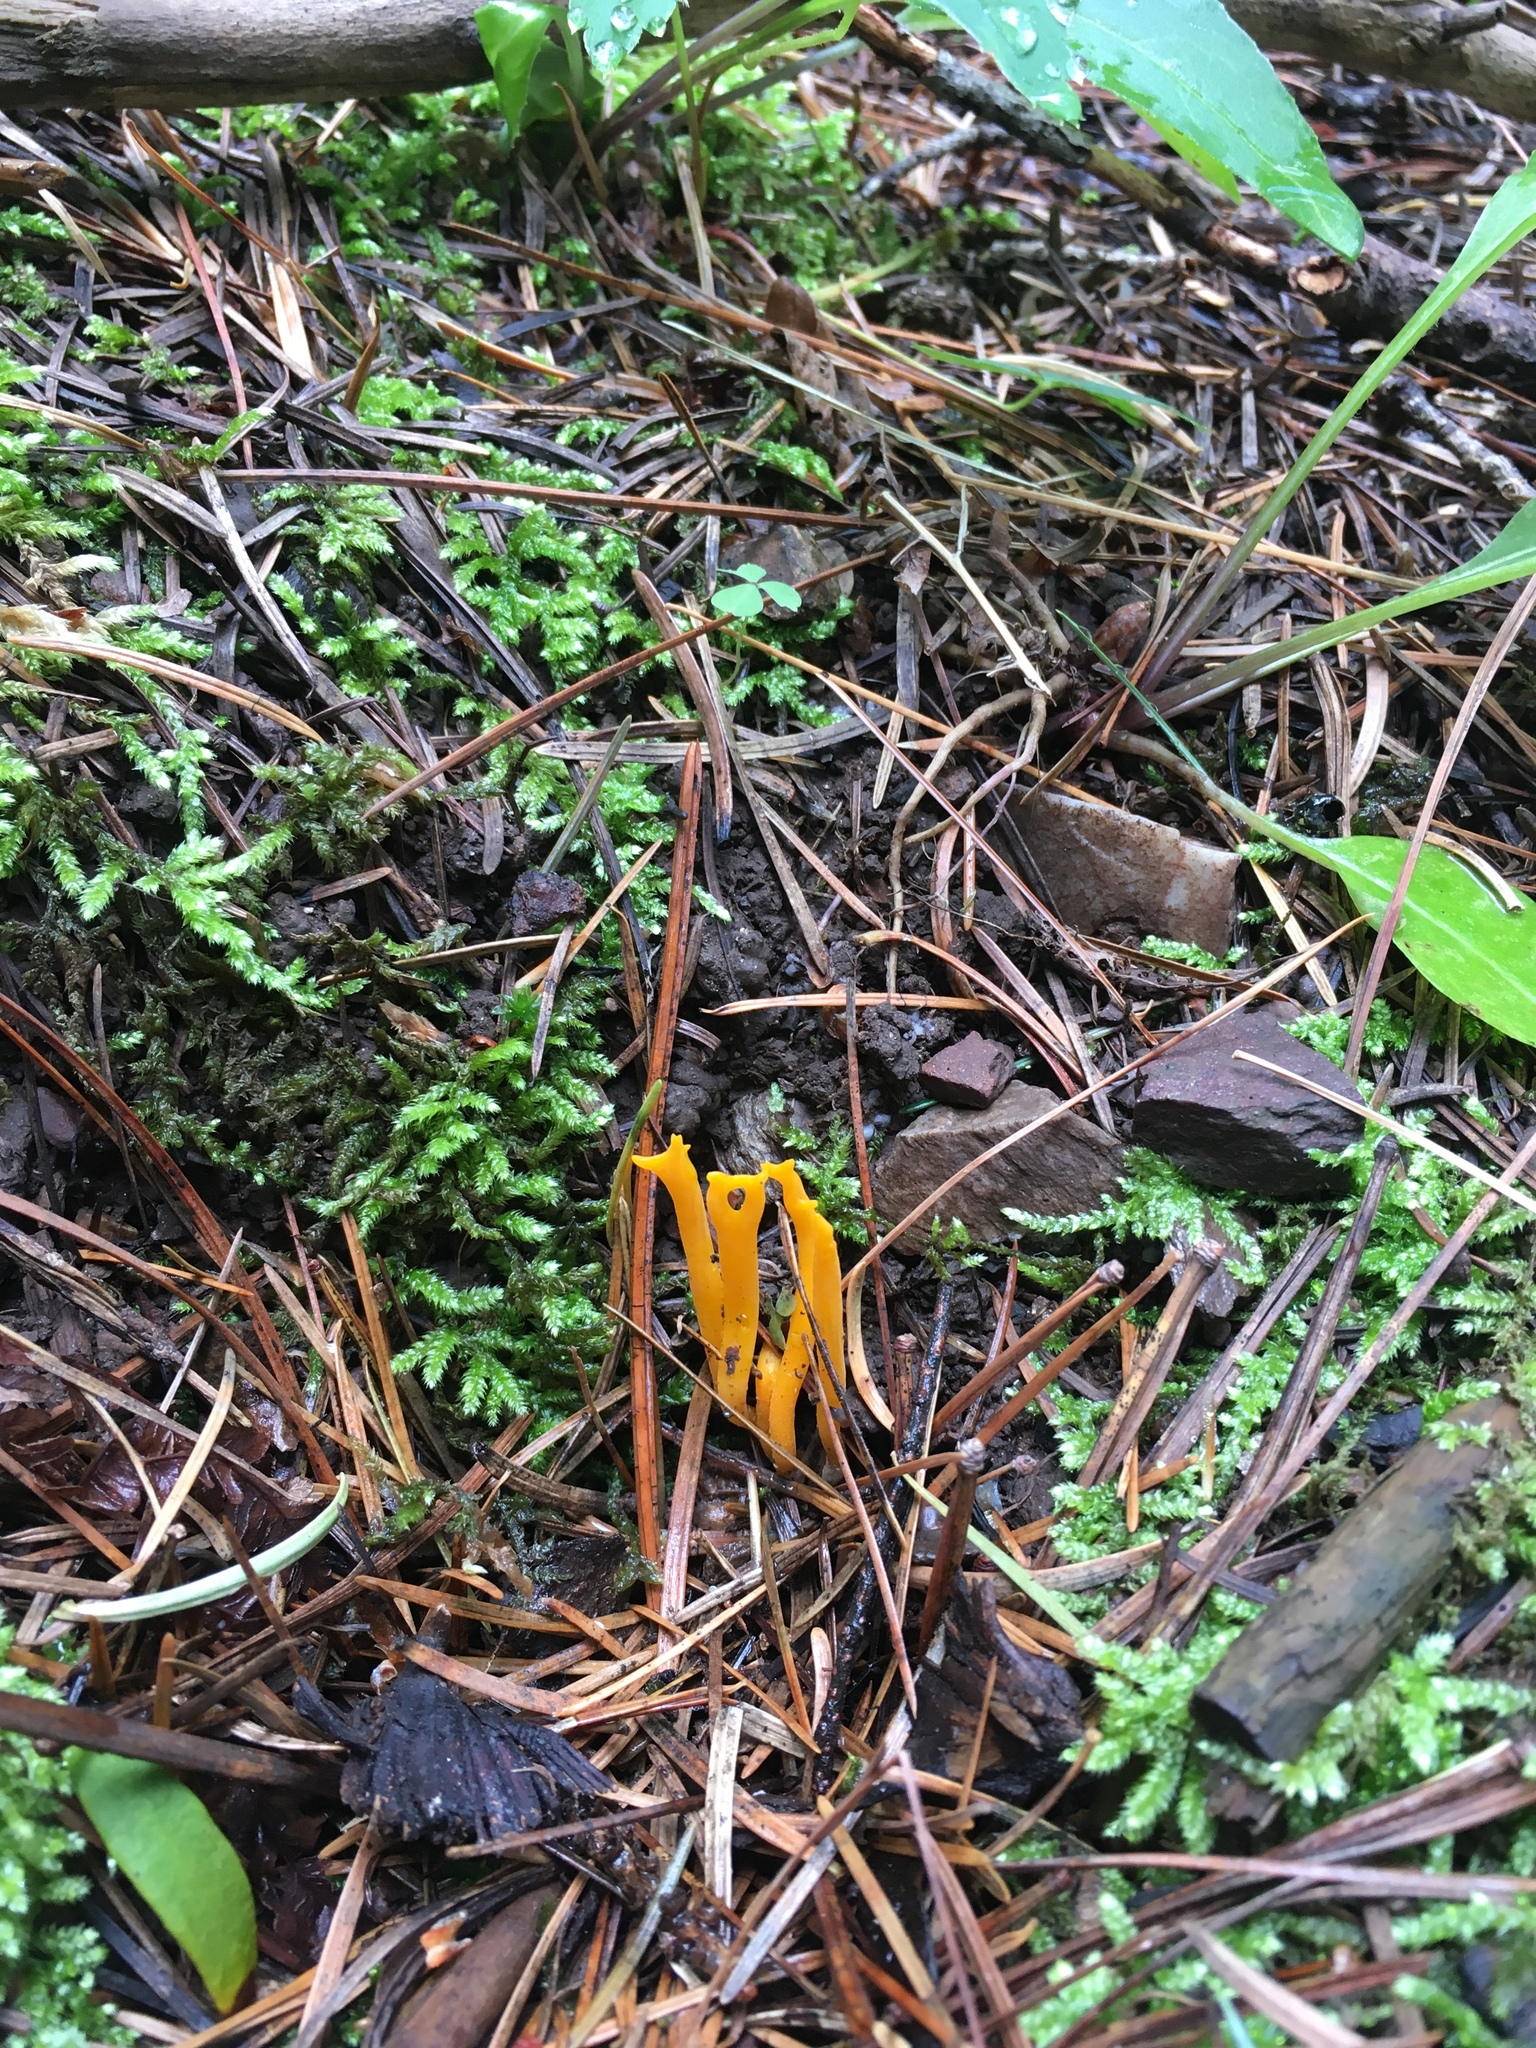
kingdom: Fungi
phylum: Basidiomycota
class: Dacrymycetes
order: Dacrymycetales
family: Dacrymycetaceae
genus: Calocera
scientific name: Calocera viscosa
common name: Yellow stagshorn
